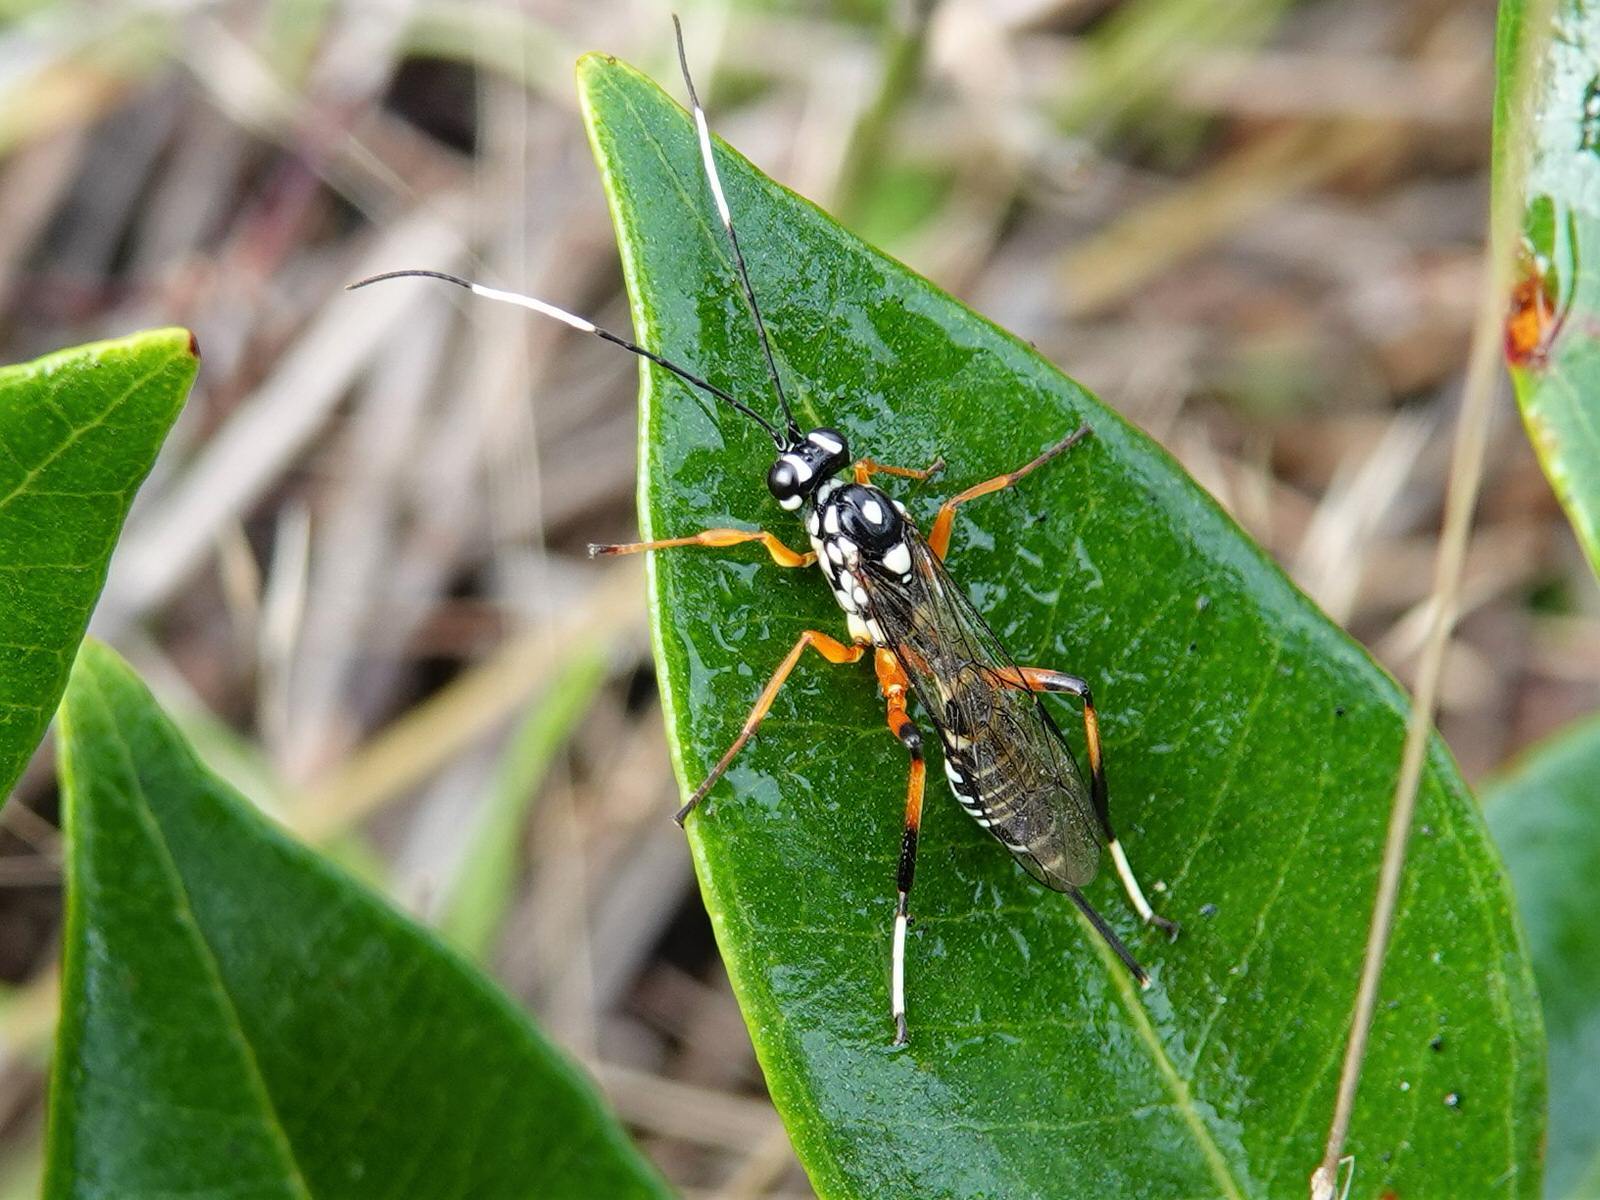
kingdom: Animalia
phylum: Arthropoda
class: Insecta
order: Hymenoptera
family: Ichneumonidae
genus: Xanthocryptus
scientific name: Xanthocryptus novozealandicus
